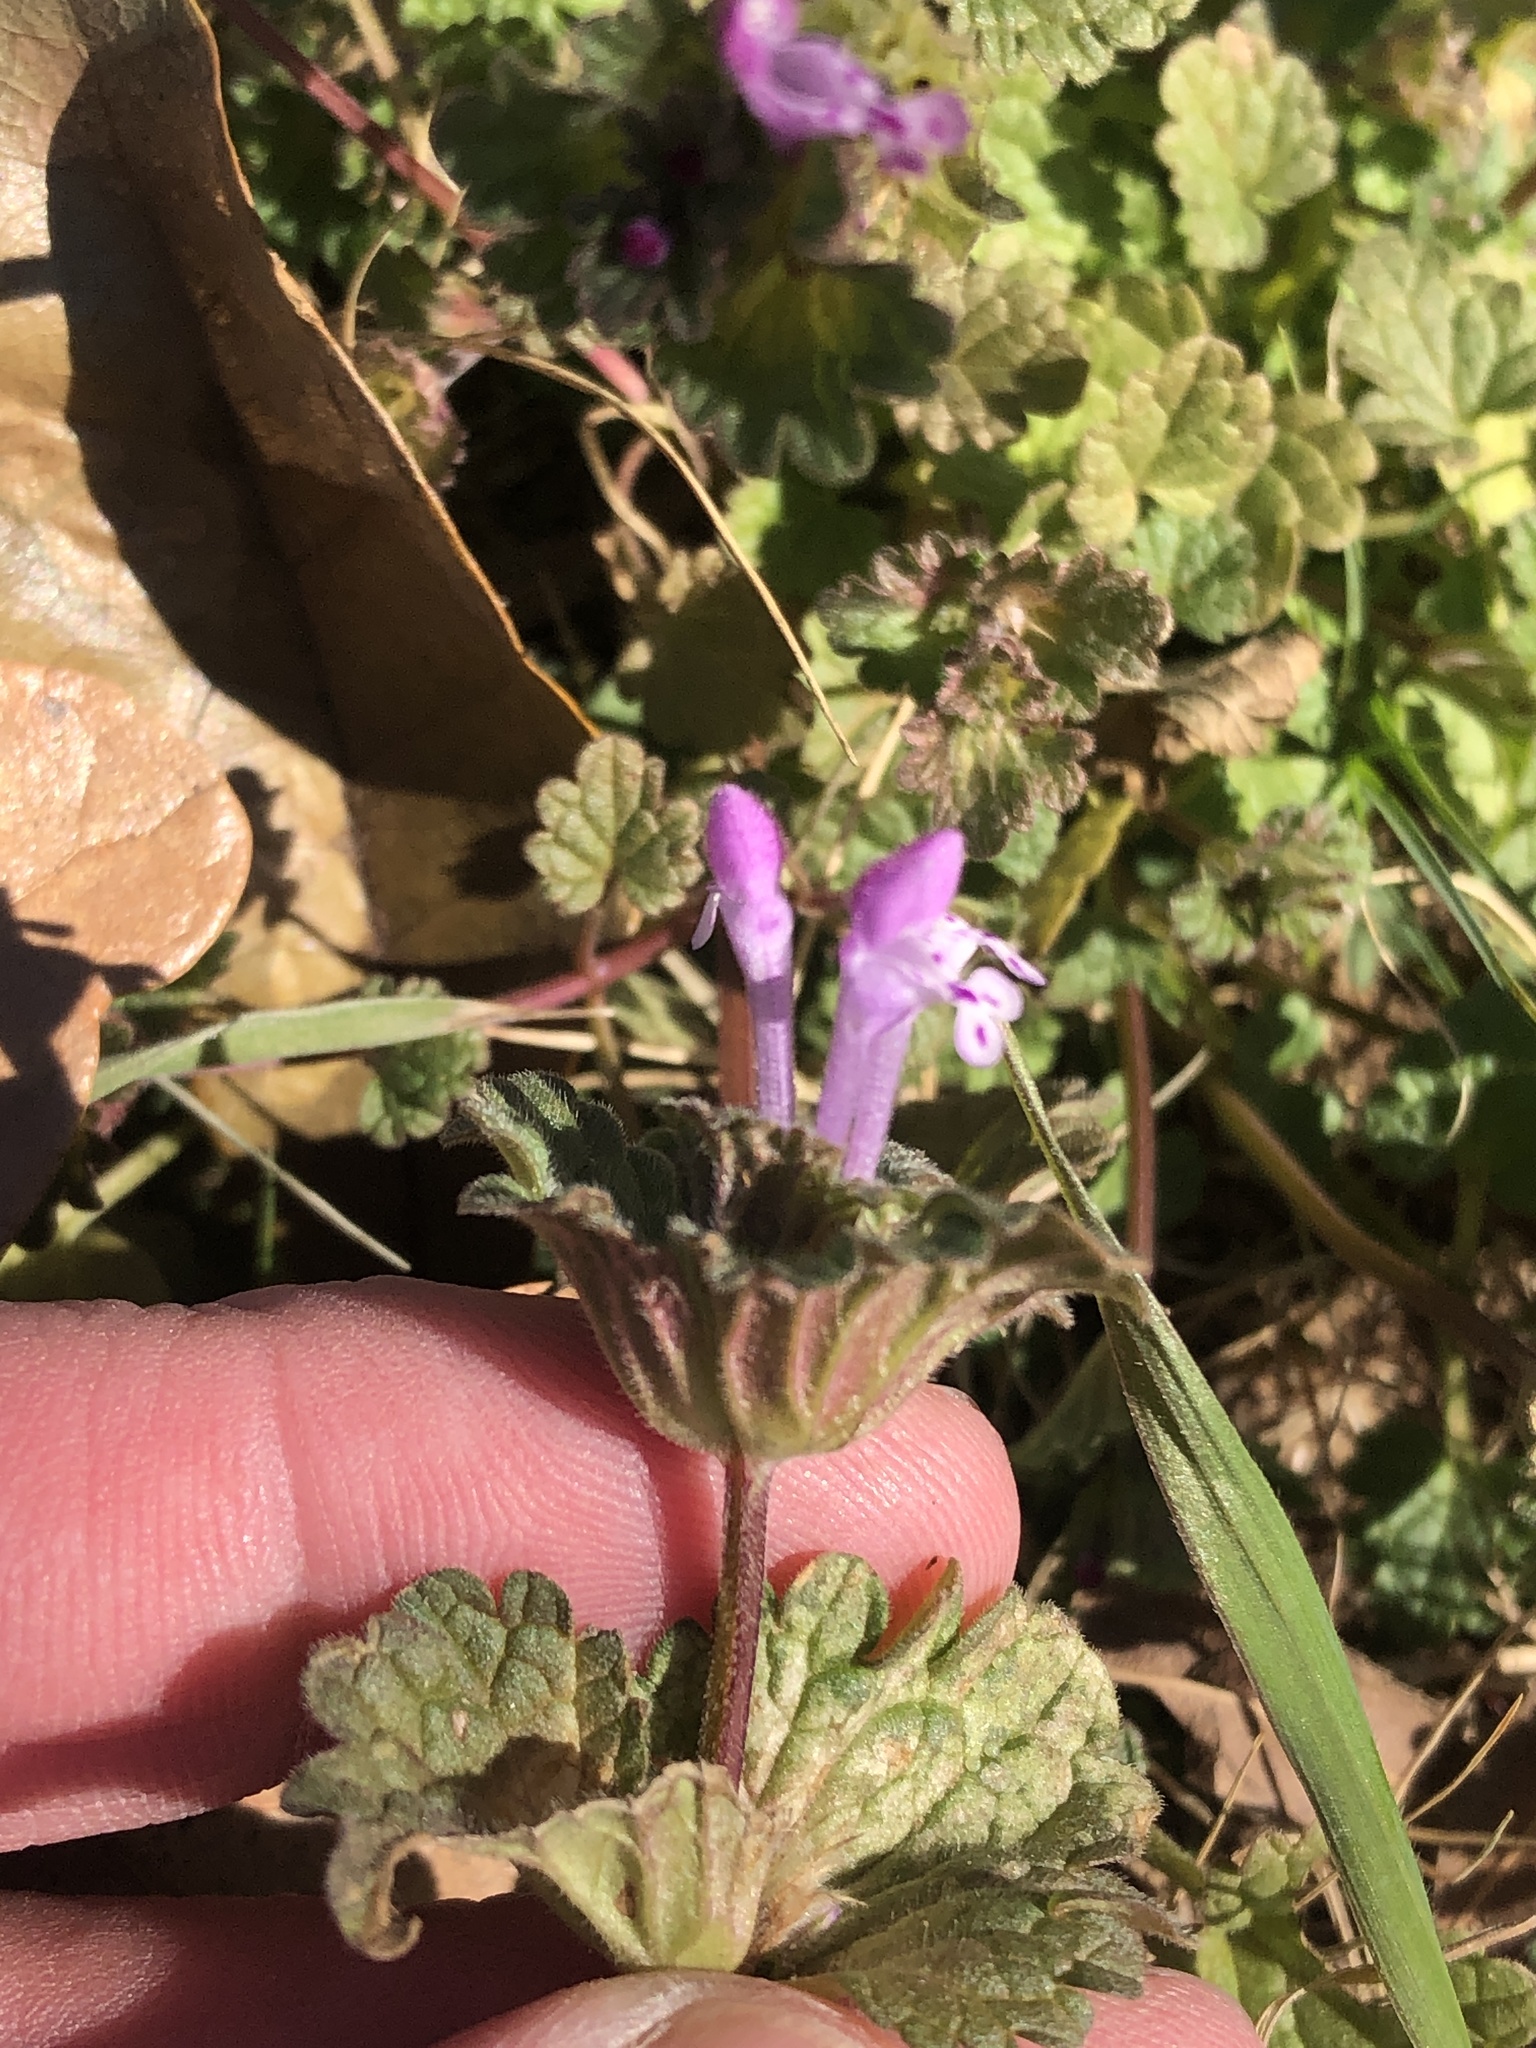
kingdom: Plantae
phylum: Tracheophyta
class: Magnoliopsida
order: Lamiales
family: Lamiaceae
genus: Lamium
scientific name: Lamium amplexicaule
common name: Henbit dead-nettle
